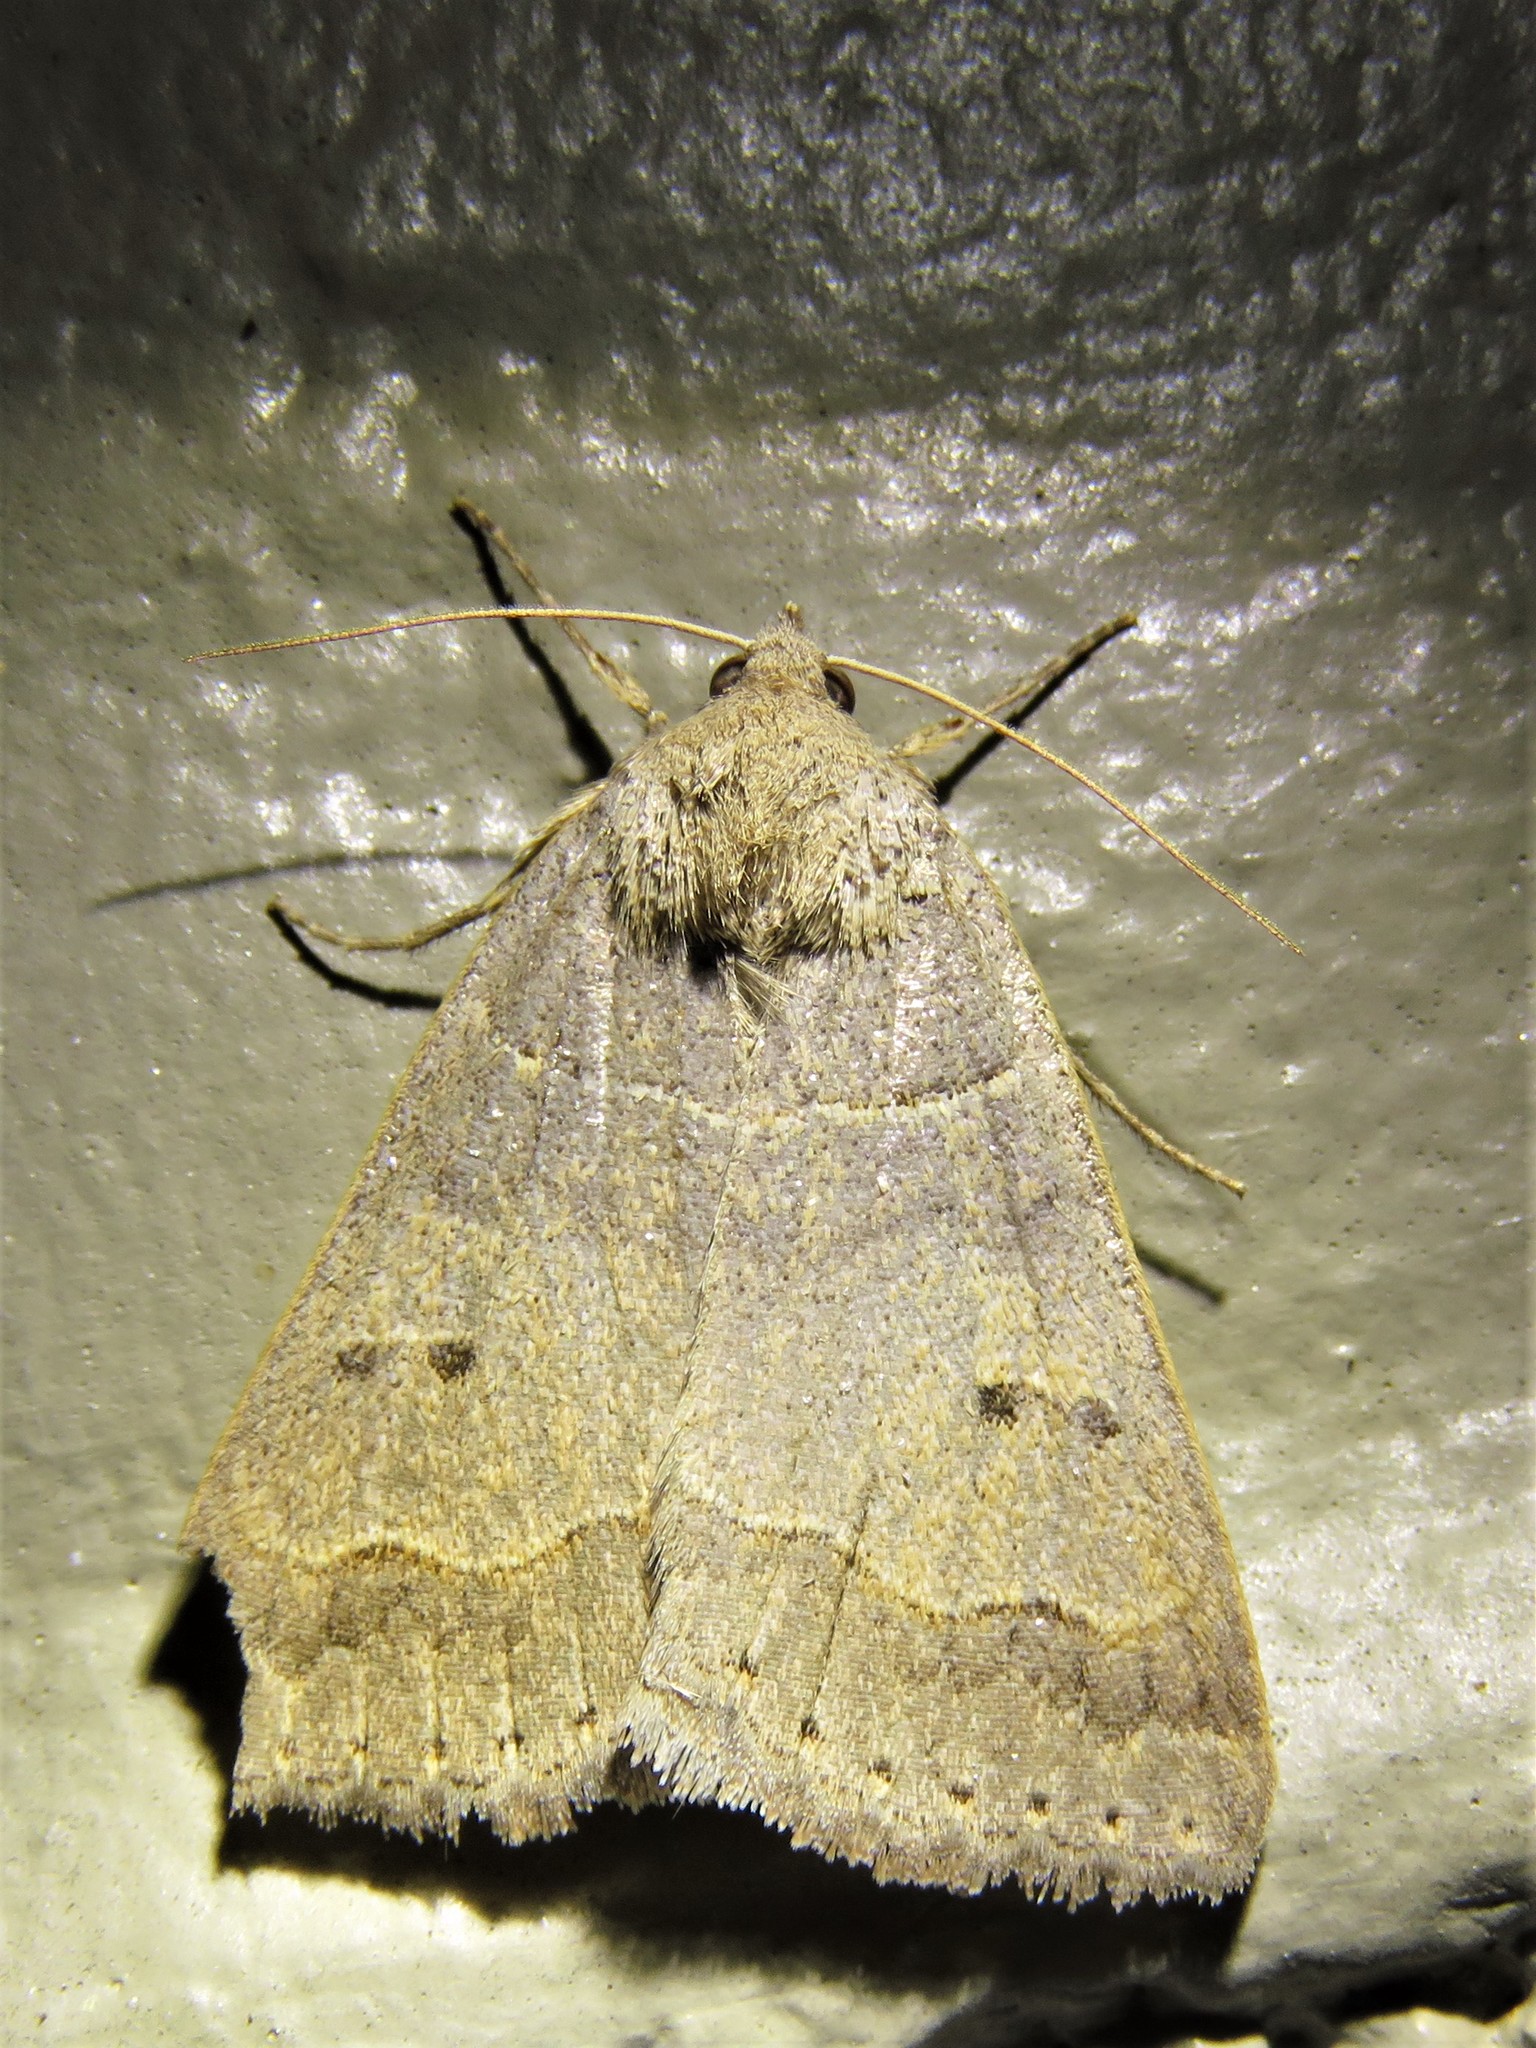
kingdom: Animalia
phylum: Arthropoda
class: Insecta
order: Lepidoptera
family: Erebidae
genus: Phoberia
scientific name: Phoberia atomaris
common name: Common oak moth
